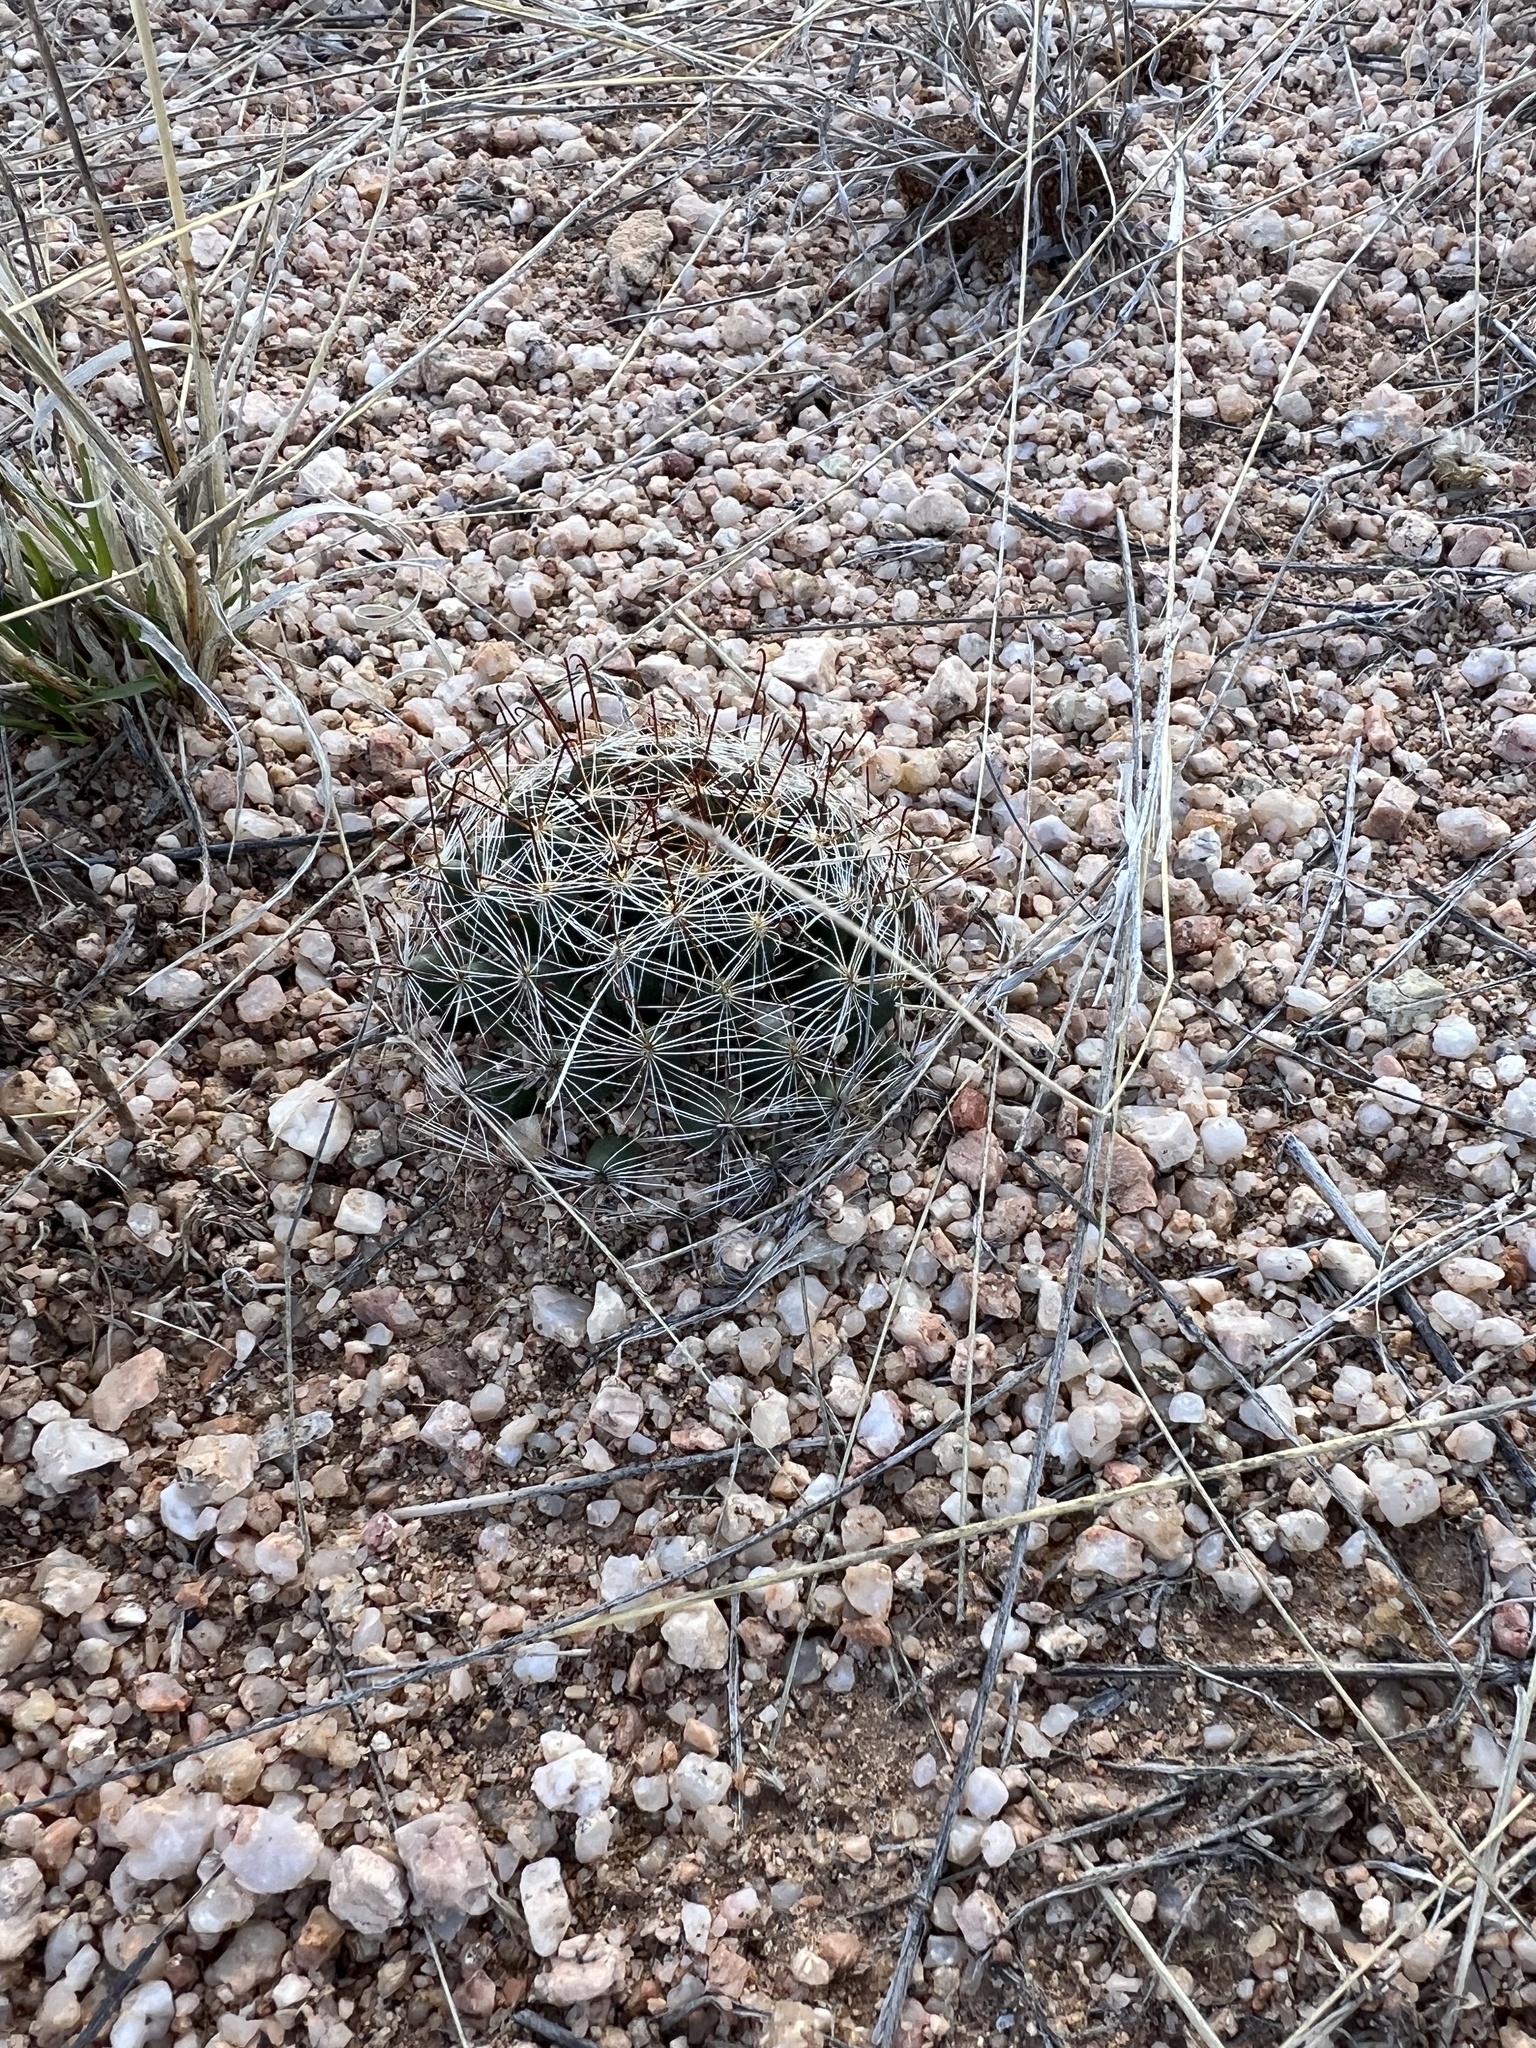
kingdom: Plantae
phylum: Tracheophyta
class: Magnoliopsida
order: Caryophyllales
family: Cactaceae
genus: Cochemiea
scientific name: Cochemiea wrightii
